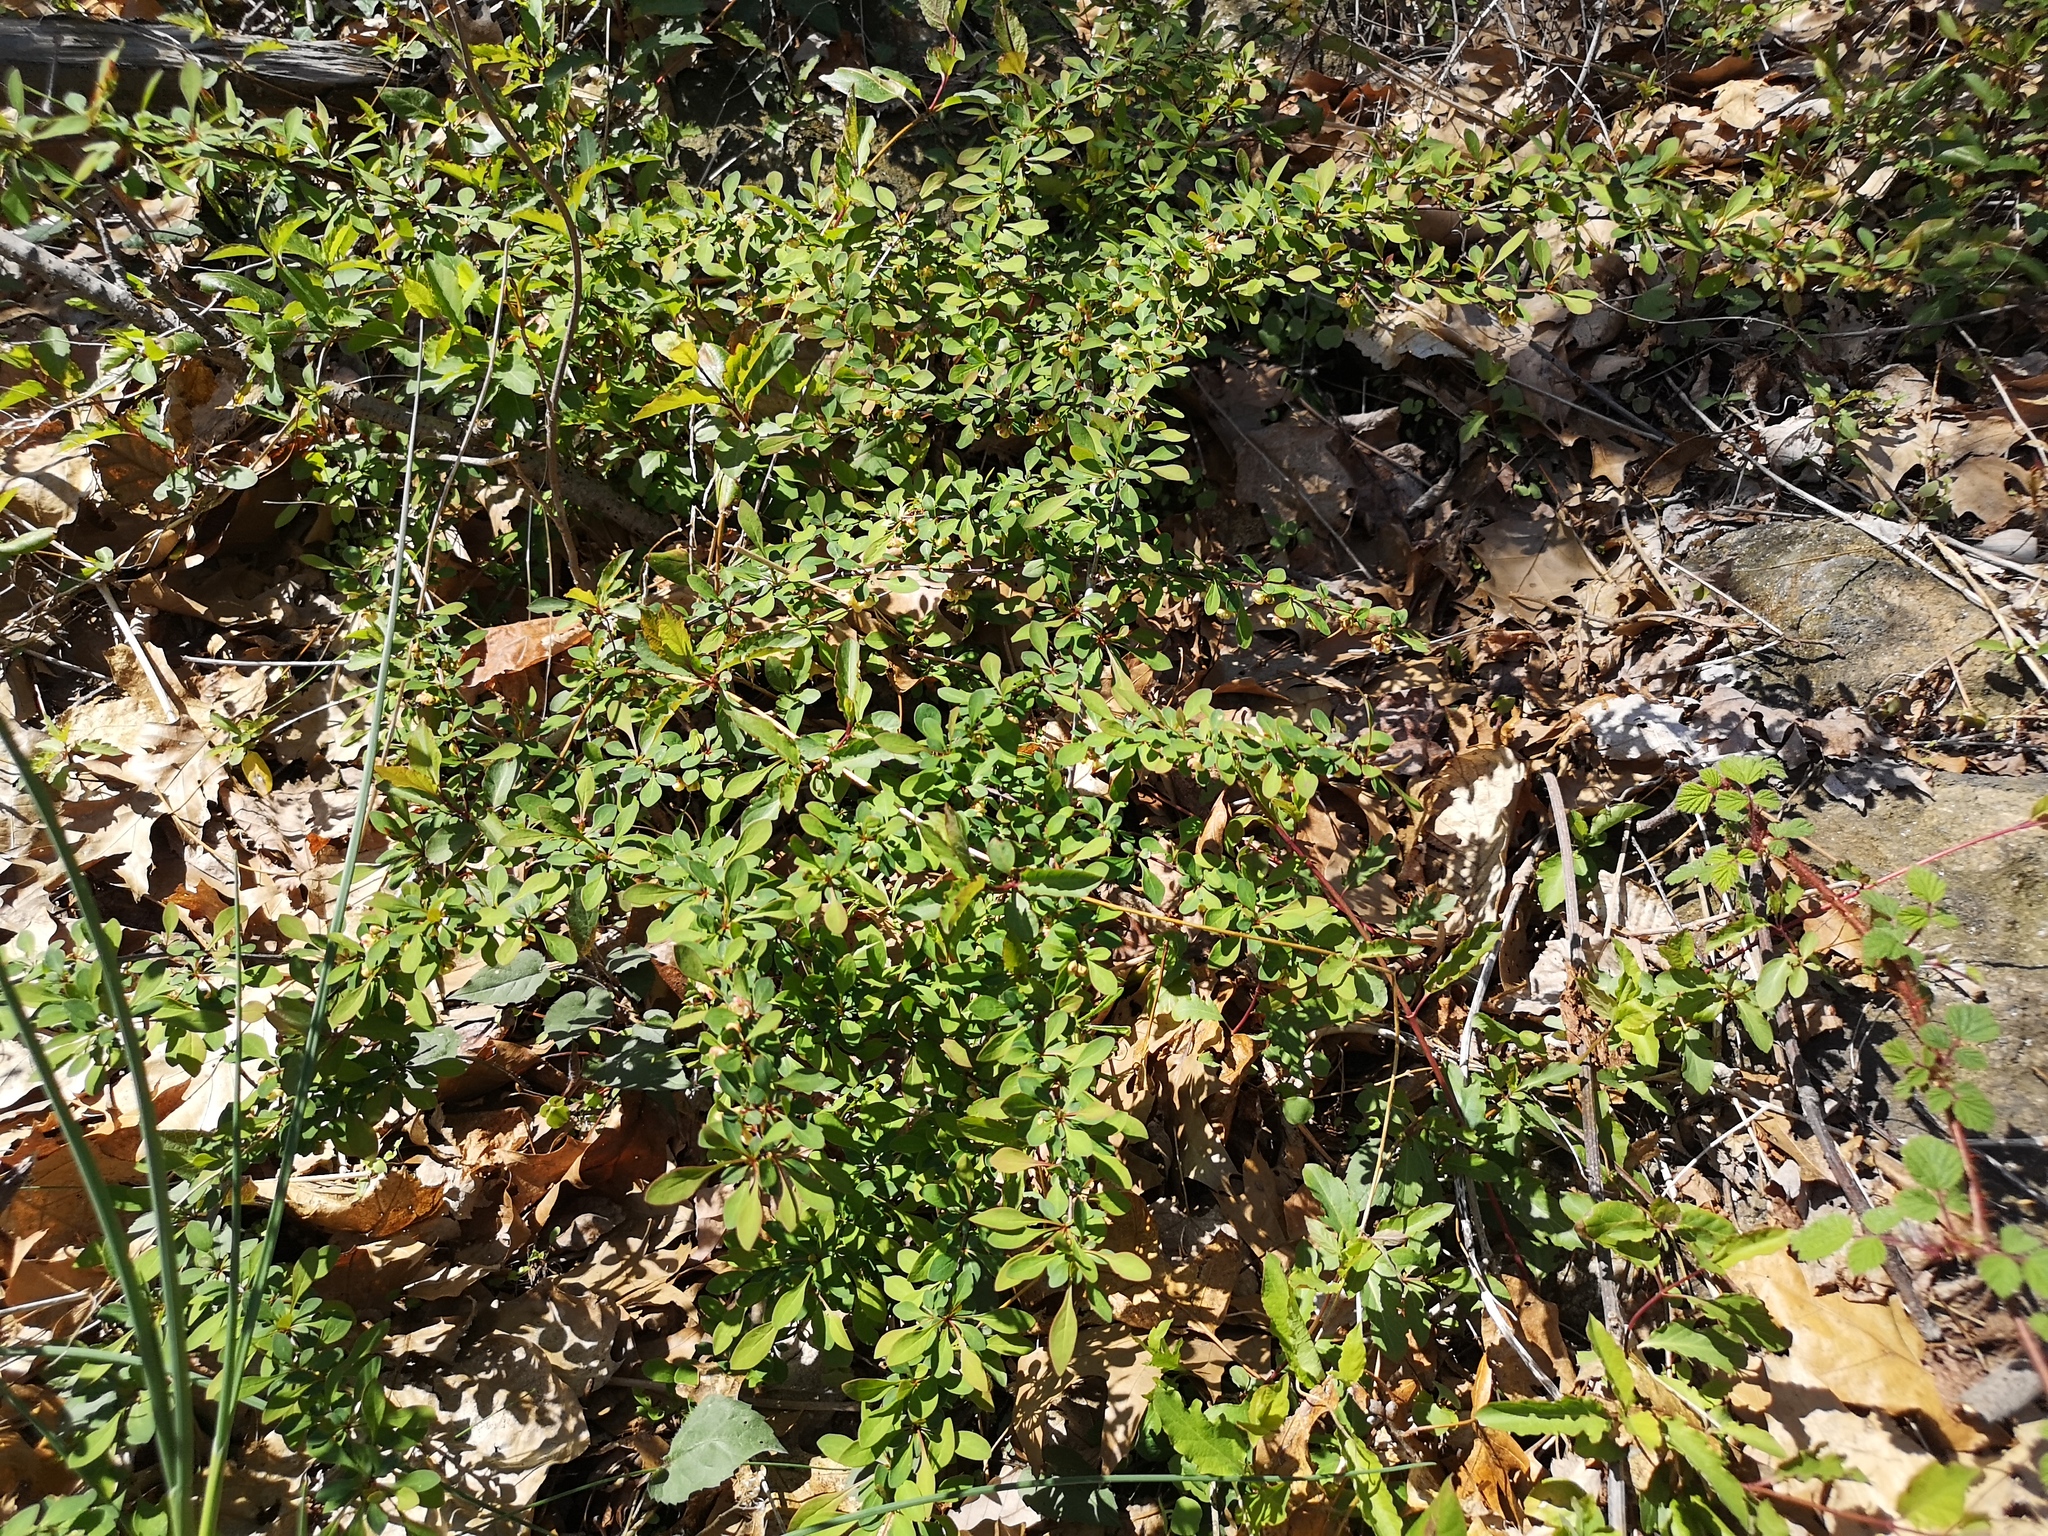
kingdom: Plantae
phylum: Tracheophyta
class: Magnoliopsida
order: Ranunculales
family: Berberidaceae
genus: Berberis
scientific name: Berberis thunbergii
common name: Japanese barberry
